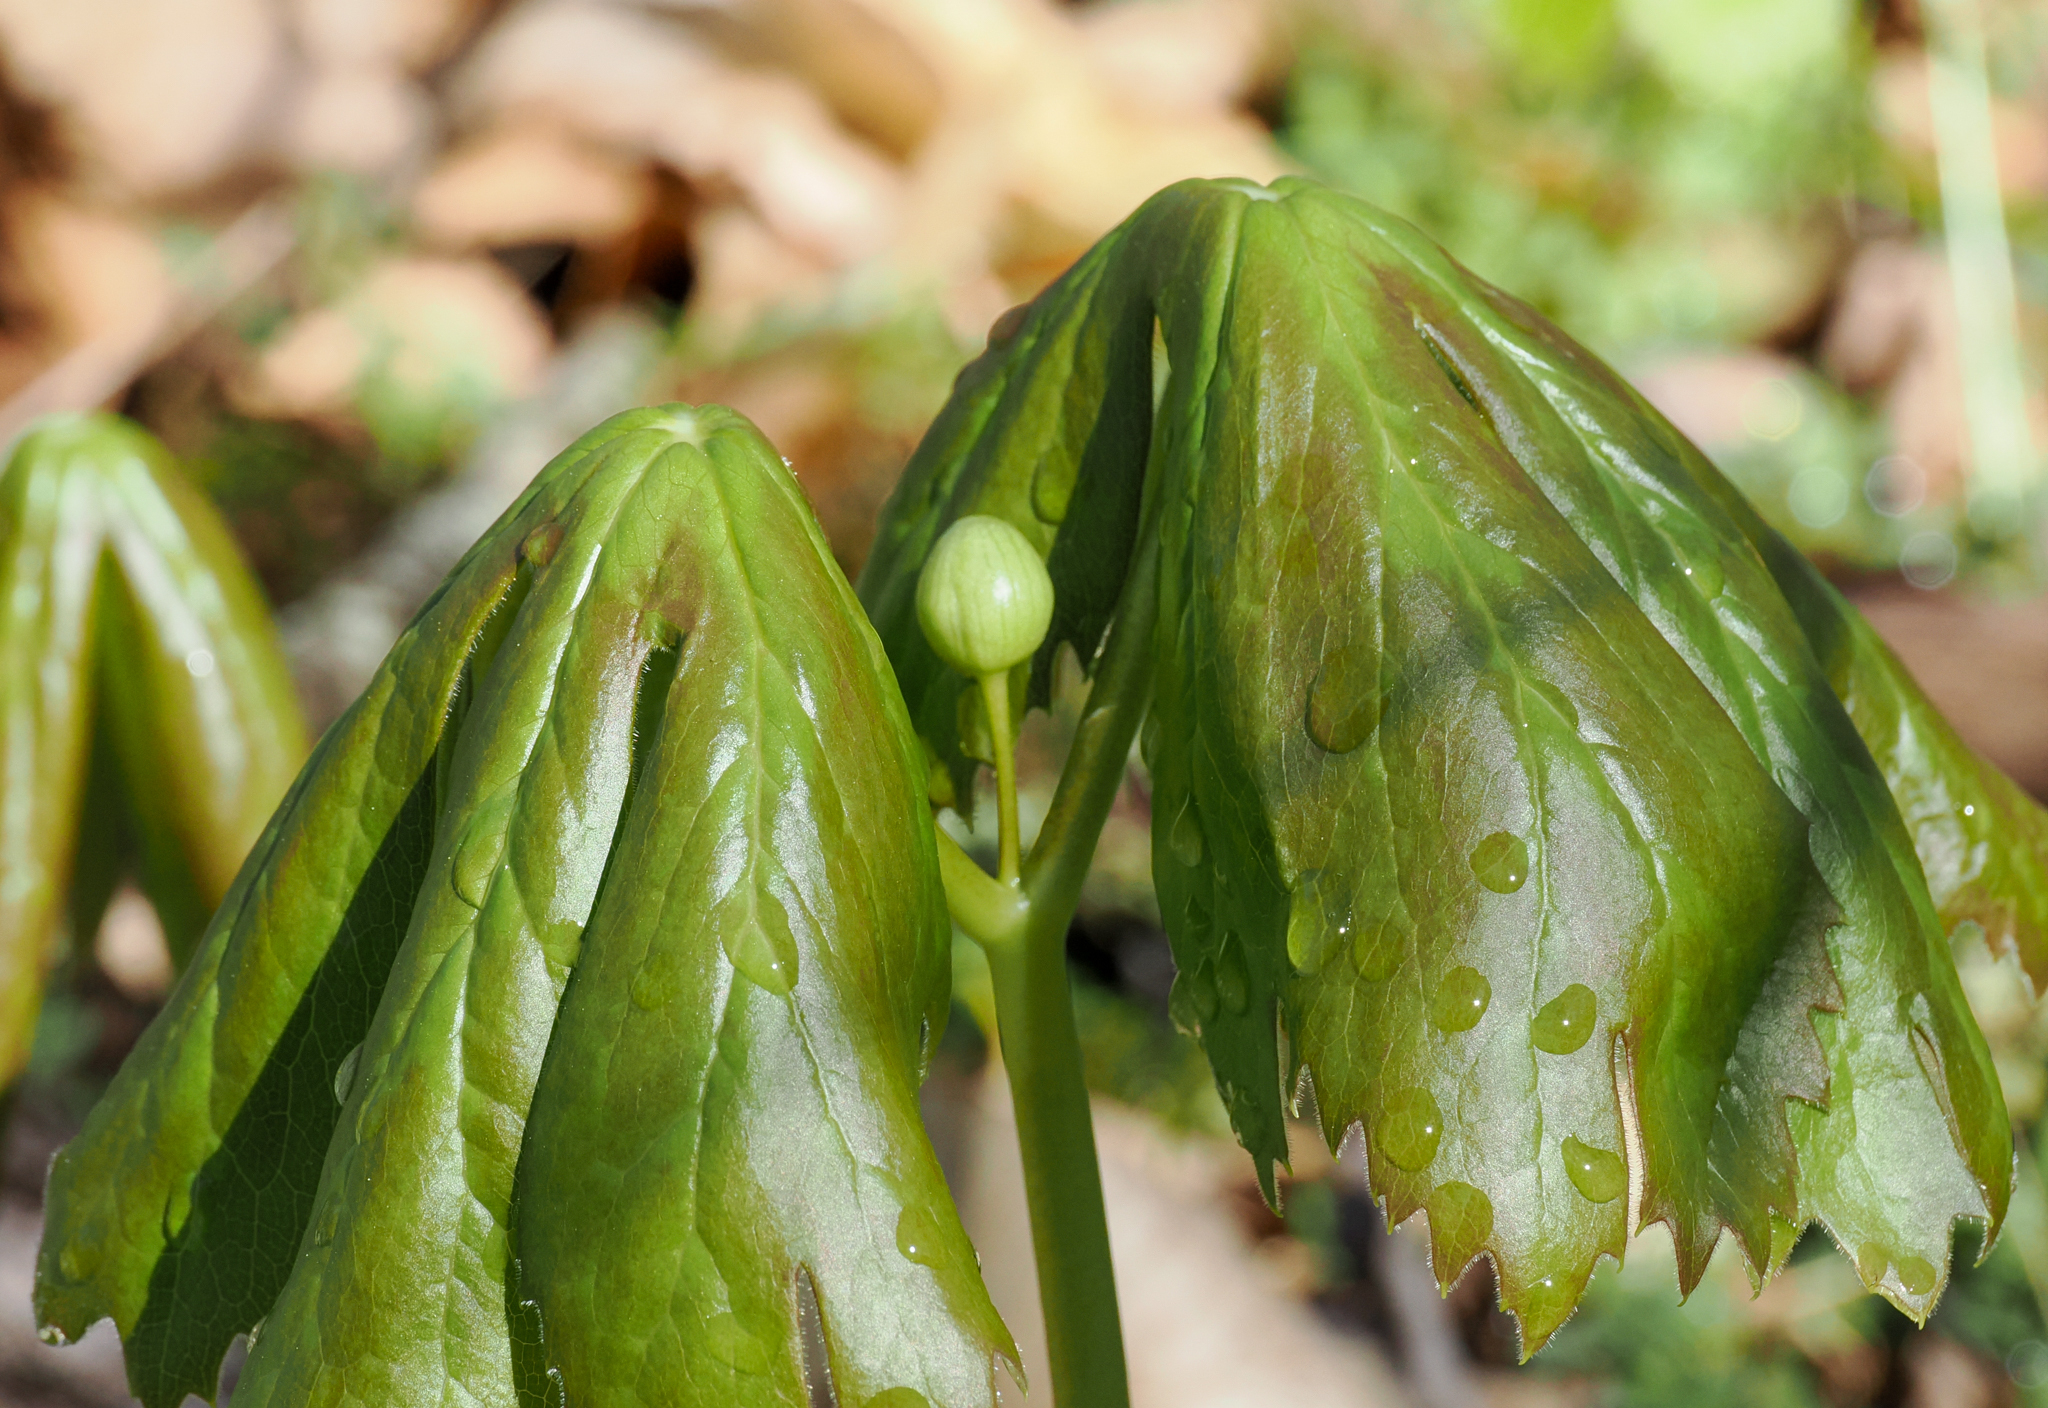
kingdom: Plantae
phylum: Tracheophyta
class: Magnoliopsida
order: Ranunculales
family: Berberidaceae
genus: Podophyllum
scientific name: Podophyllum peltatum
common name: Wild mandrake
